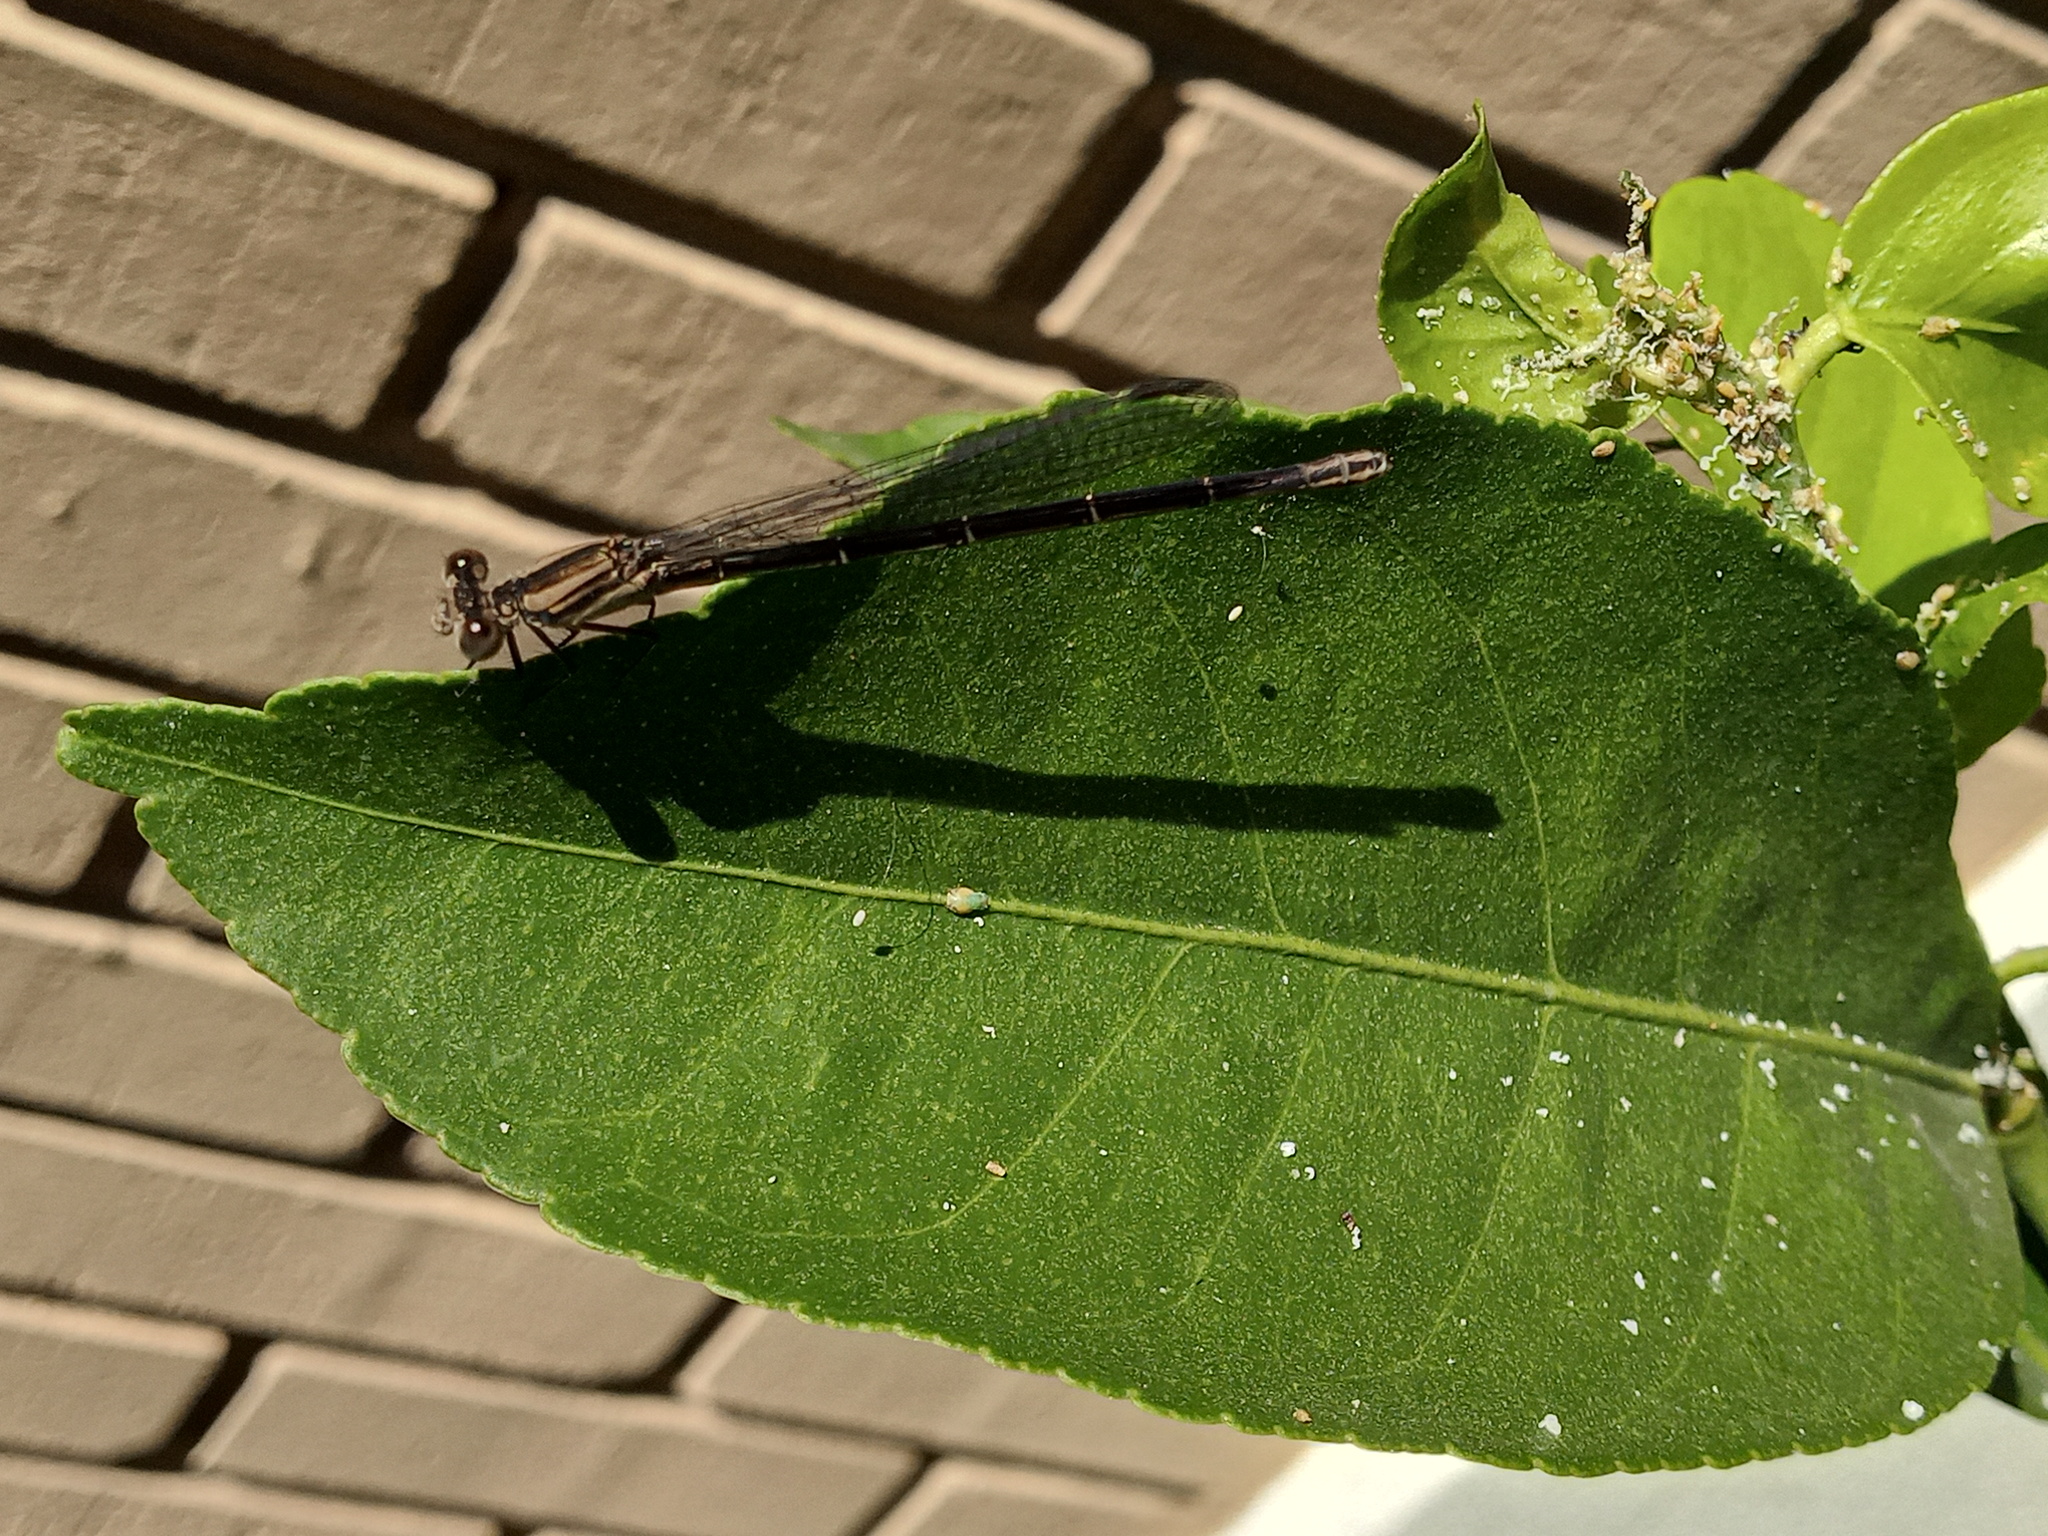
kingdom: Animalia
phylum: Arthropoda
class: Insecta
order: Odonata
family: Coenagrionidae
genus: Argia
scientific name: Argia translata
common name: Dusky dancer
